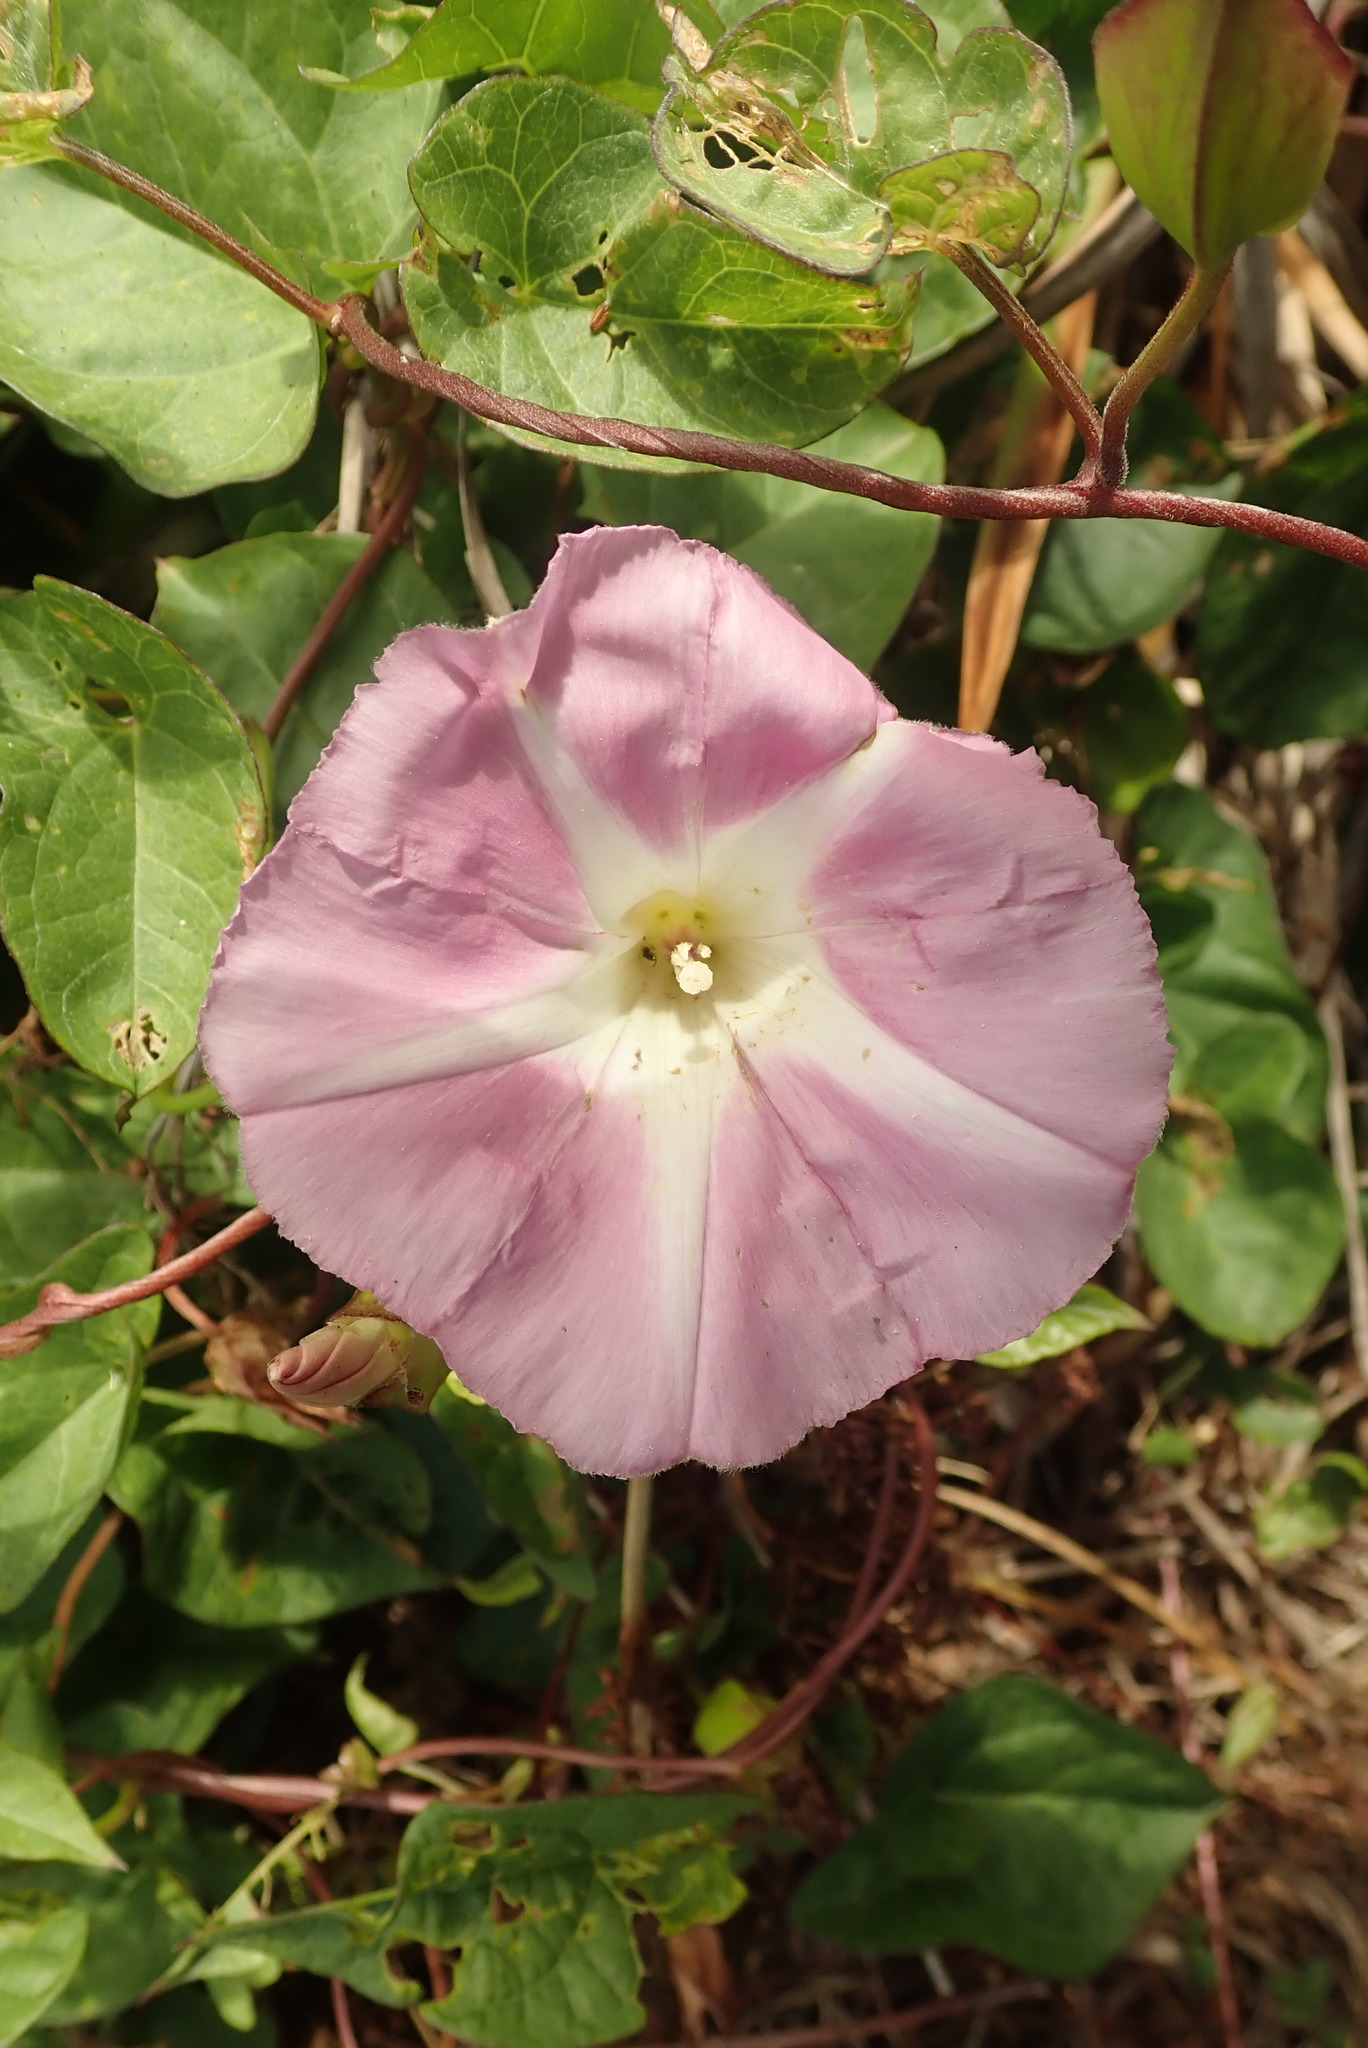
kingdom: Plantae
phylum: Tracheophyta
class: Magnoliopsida
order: Solanales
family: Convolvulaceae
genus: Calystegia
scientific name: Calystegia sepium
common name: Hedge bindweed
